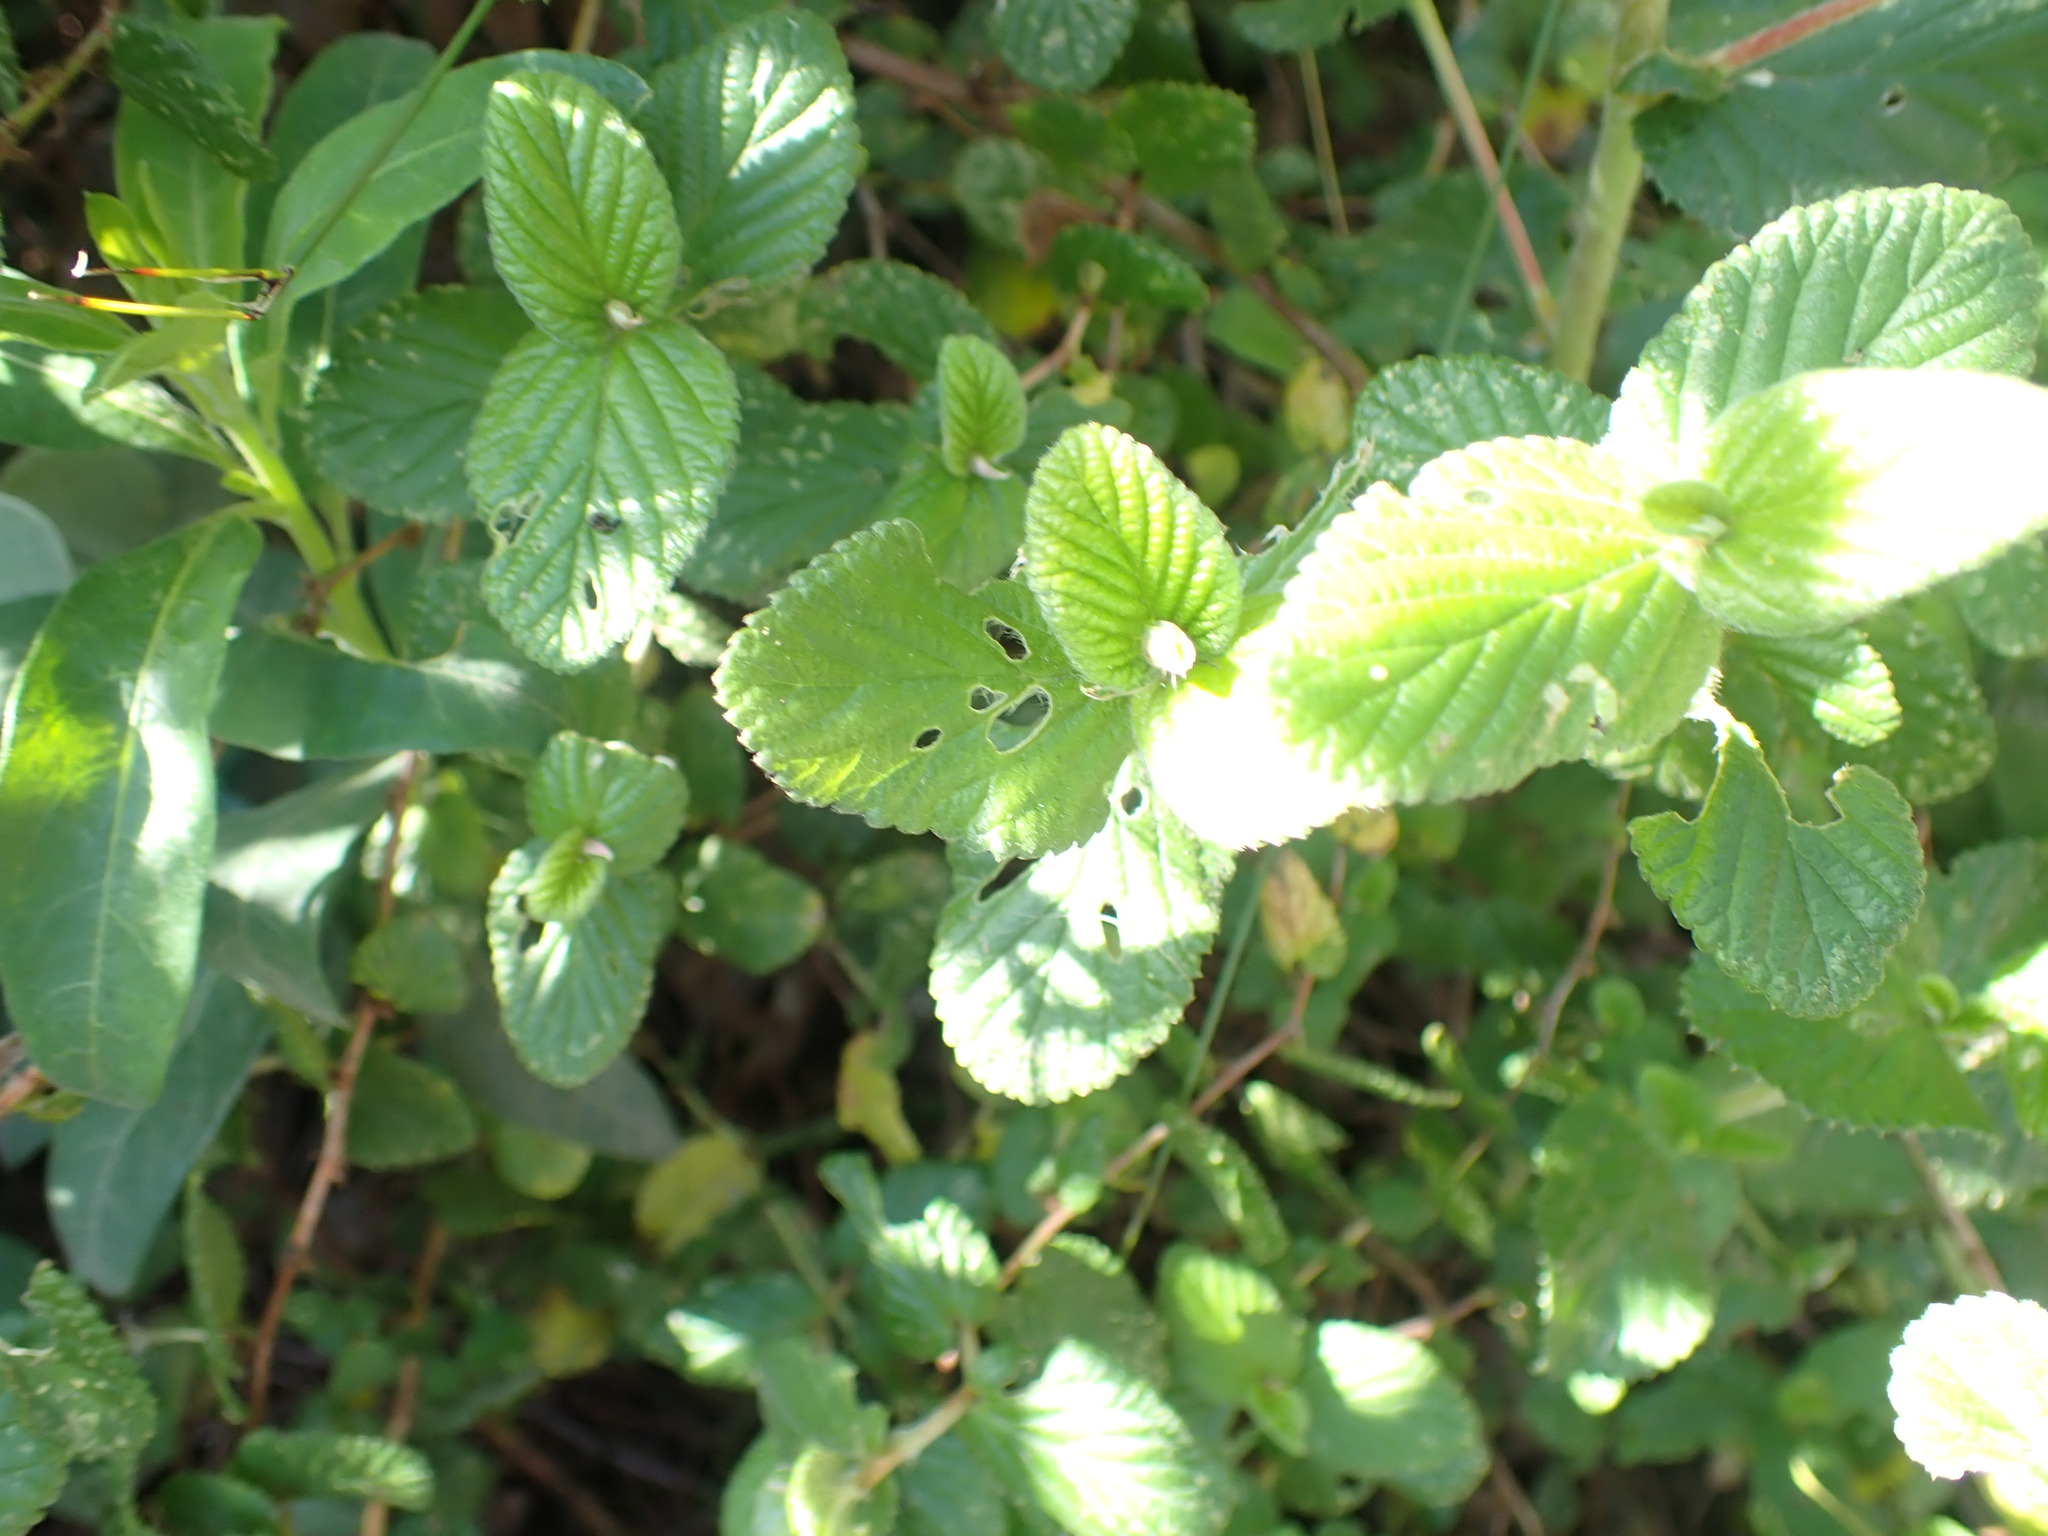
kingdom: Plantae
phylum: Tracheophyta
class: Magnoliopsida
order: Rosales
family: Rosaceae
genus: Cliffortia
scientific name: Cliffortia odorata
